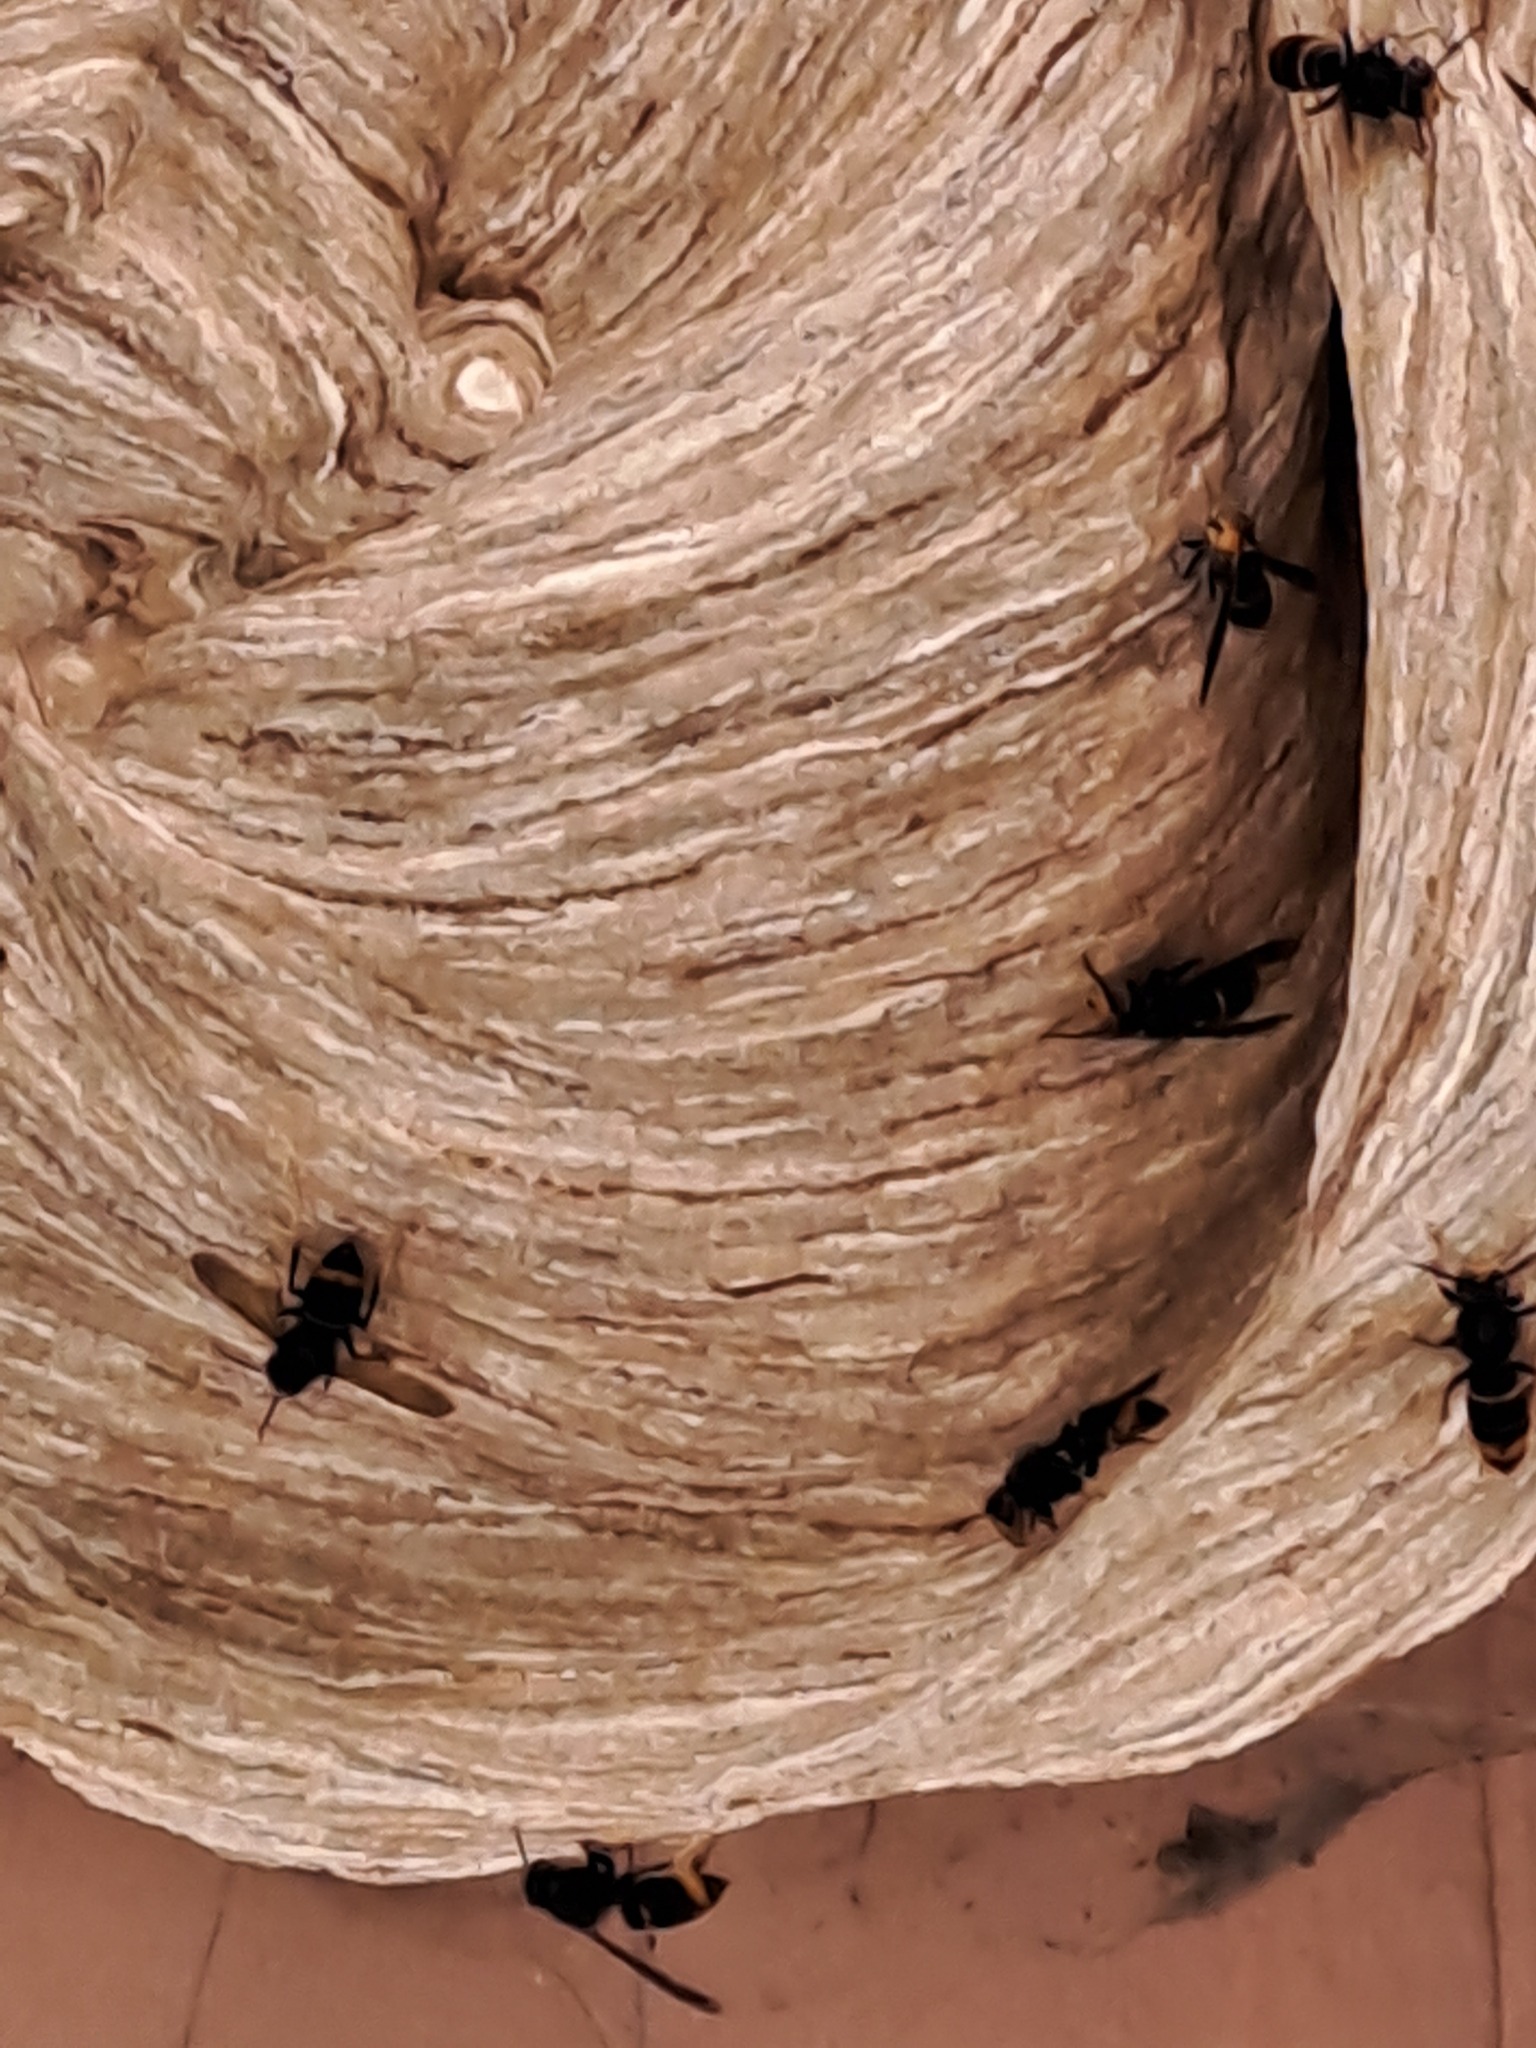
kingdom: Animalia
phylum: Arthropoda
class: Insecta
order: Hymenoptera
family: Vespidae
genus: Vespa
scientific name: Vespa velutina
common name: Asian hornet
